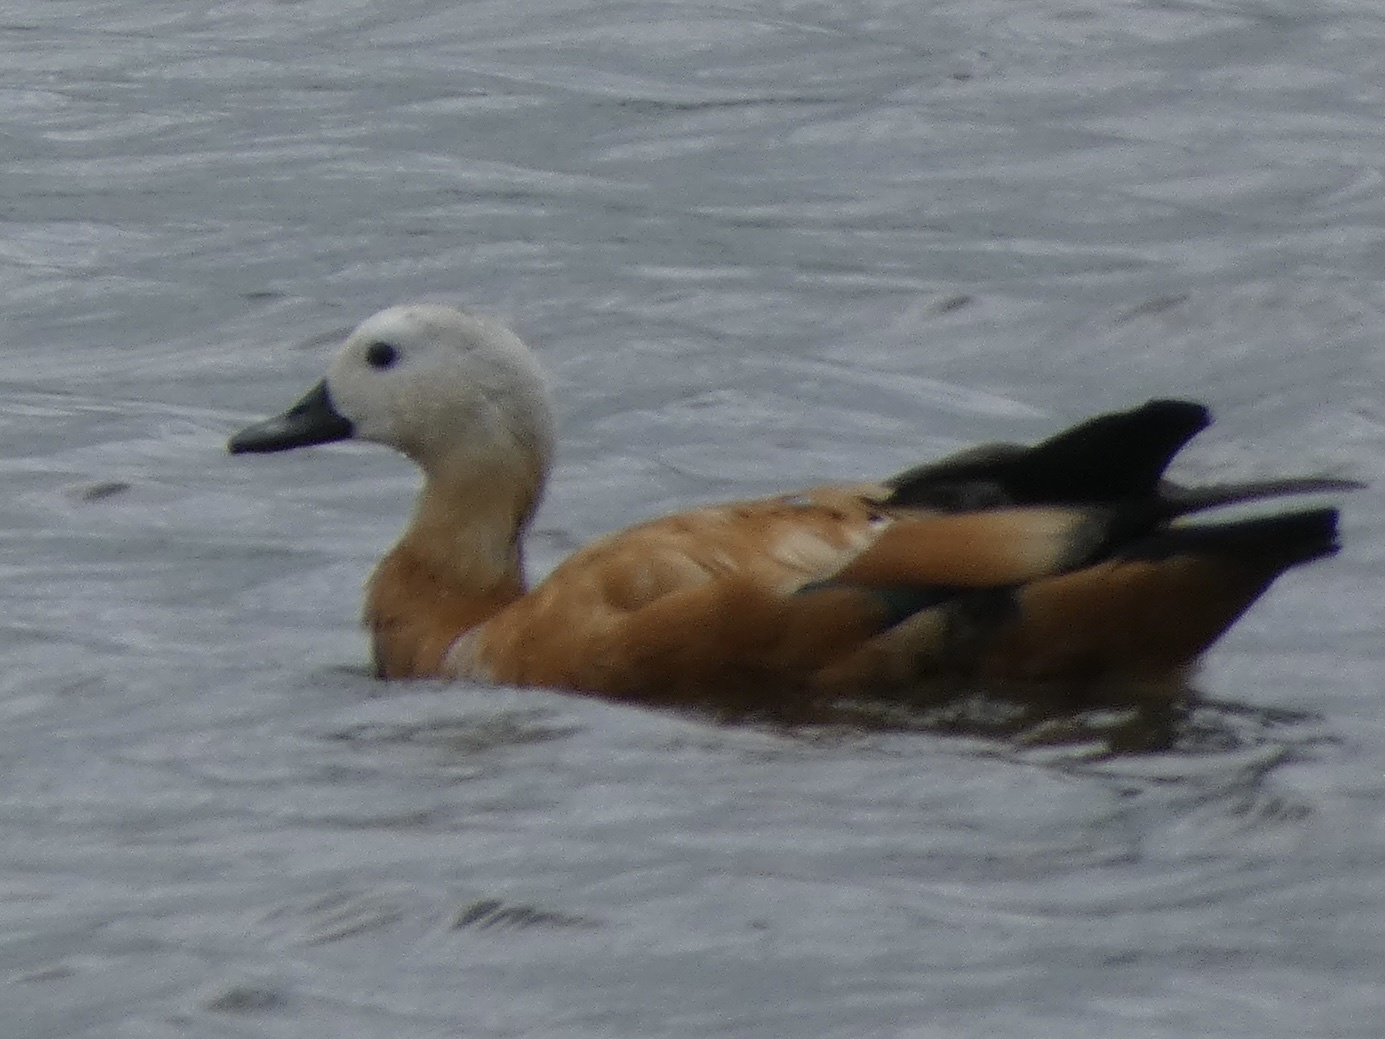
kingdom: Animalia
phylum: Chordata
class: Aves
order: Anseriformes
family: Anatidae
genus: Tadorna
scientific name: Tadorna ferruginea
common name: Ruddy shelduck
